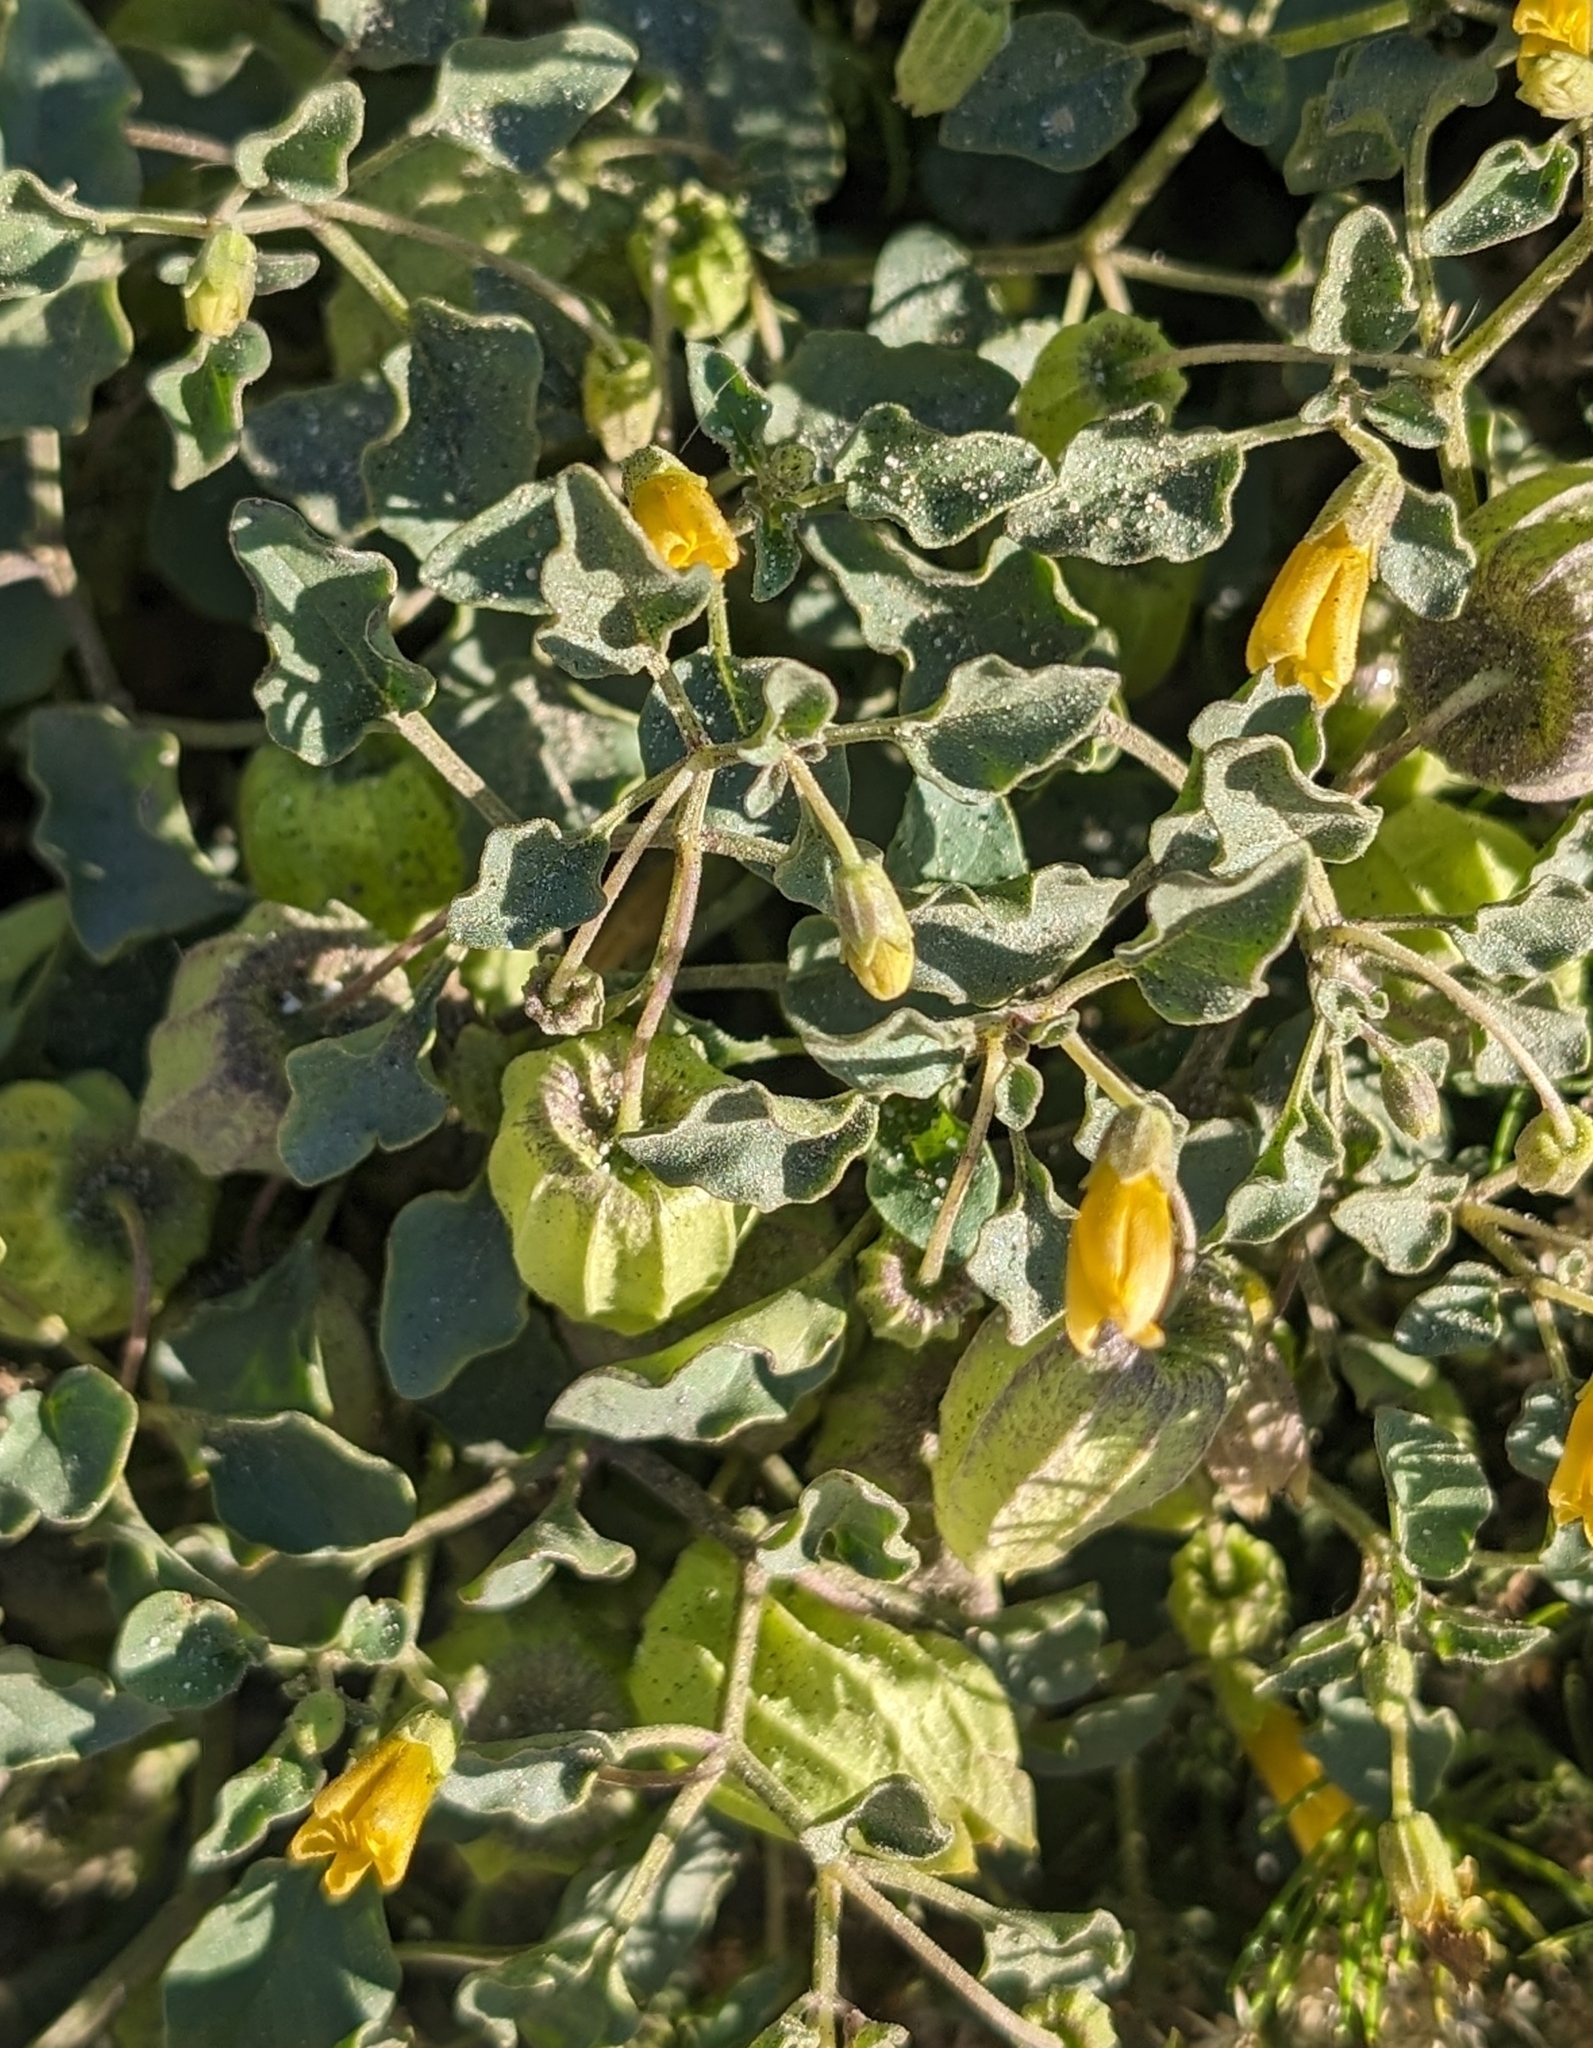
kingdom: Plantae
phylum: Tracheophyta
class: Magnoliopsida
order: Solanales
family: Solanaceae
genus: Physalis
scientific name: Physalis crassifolia
